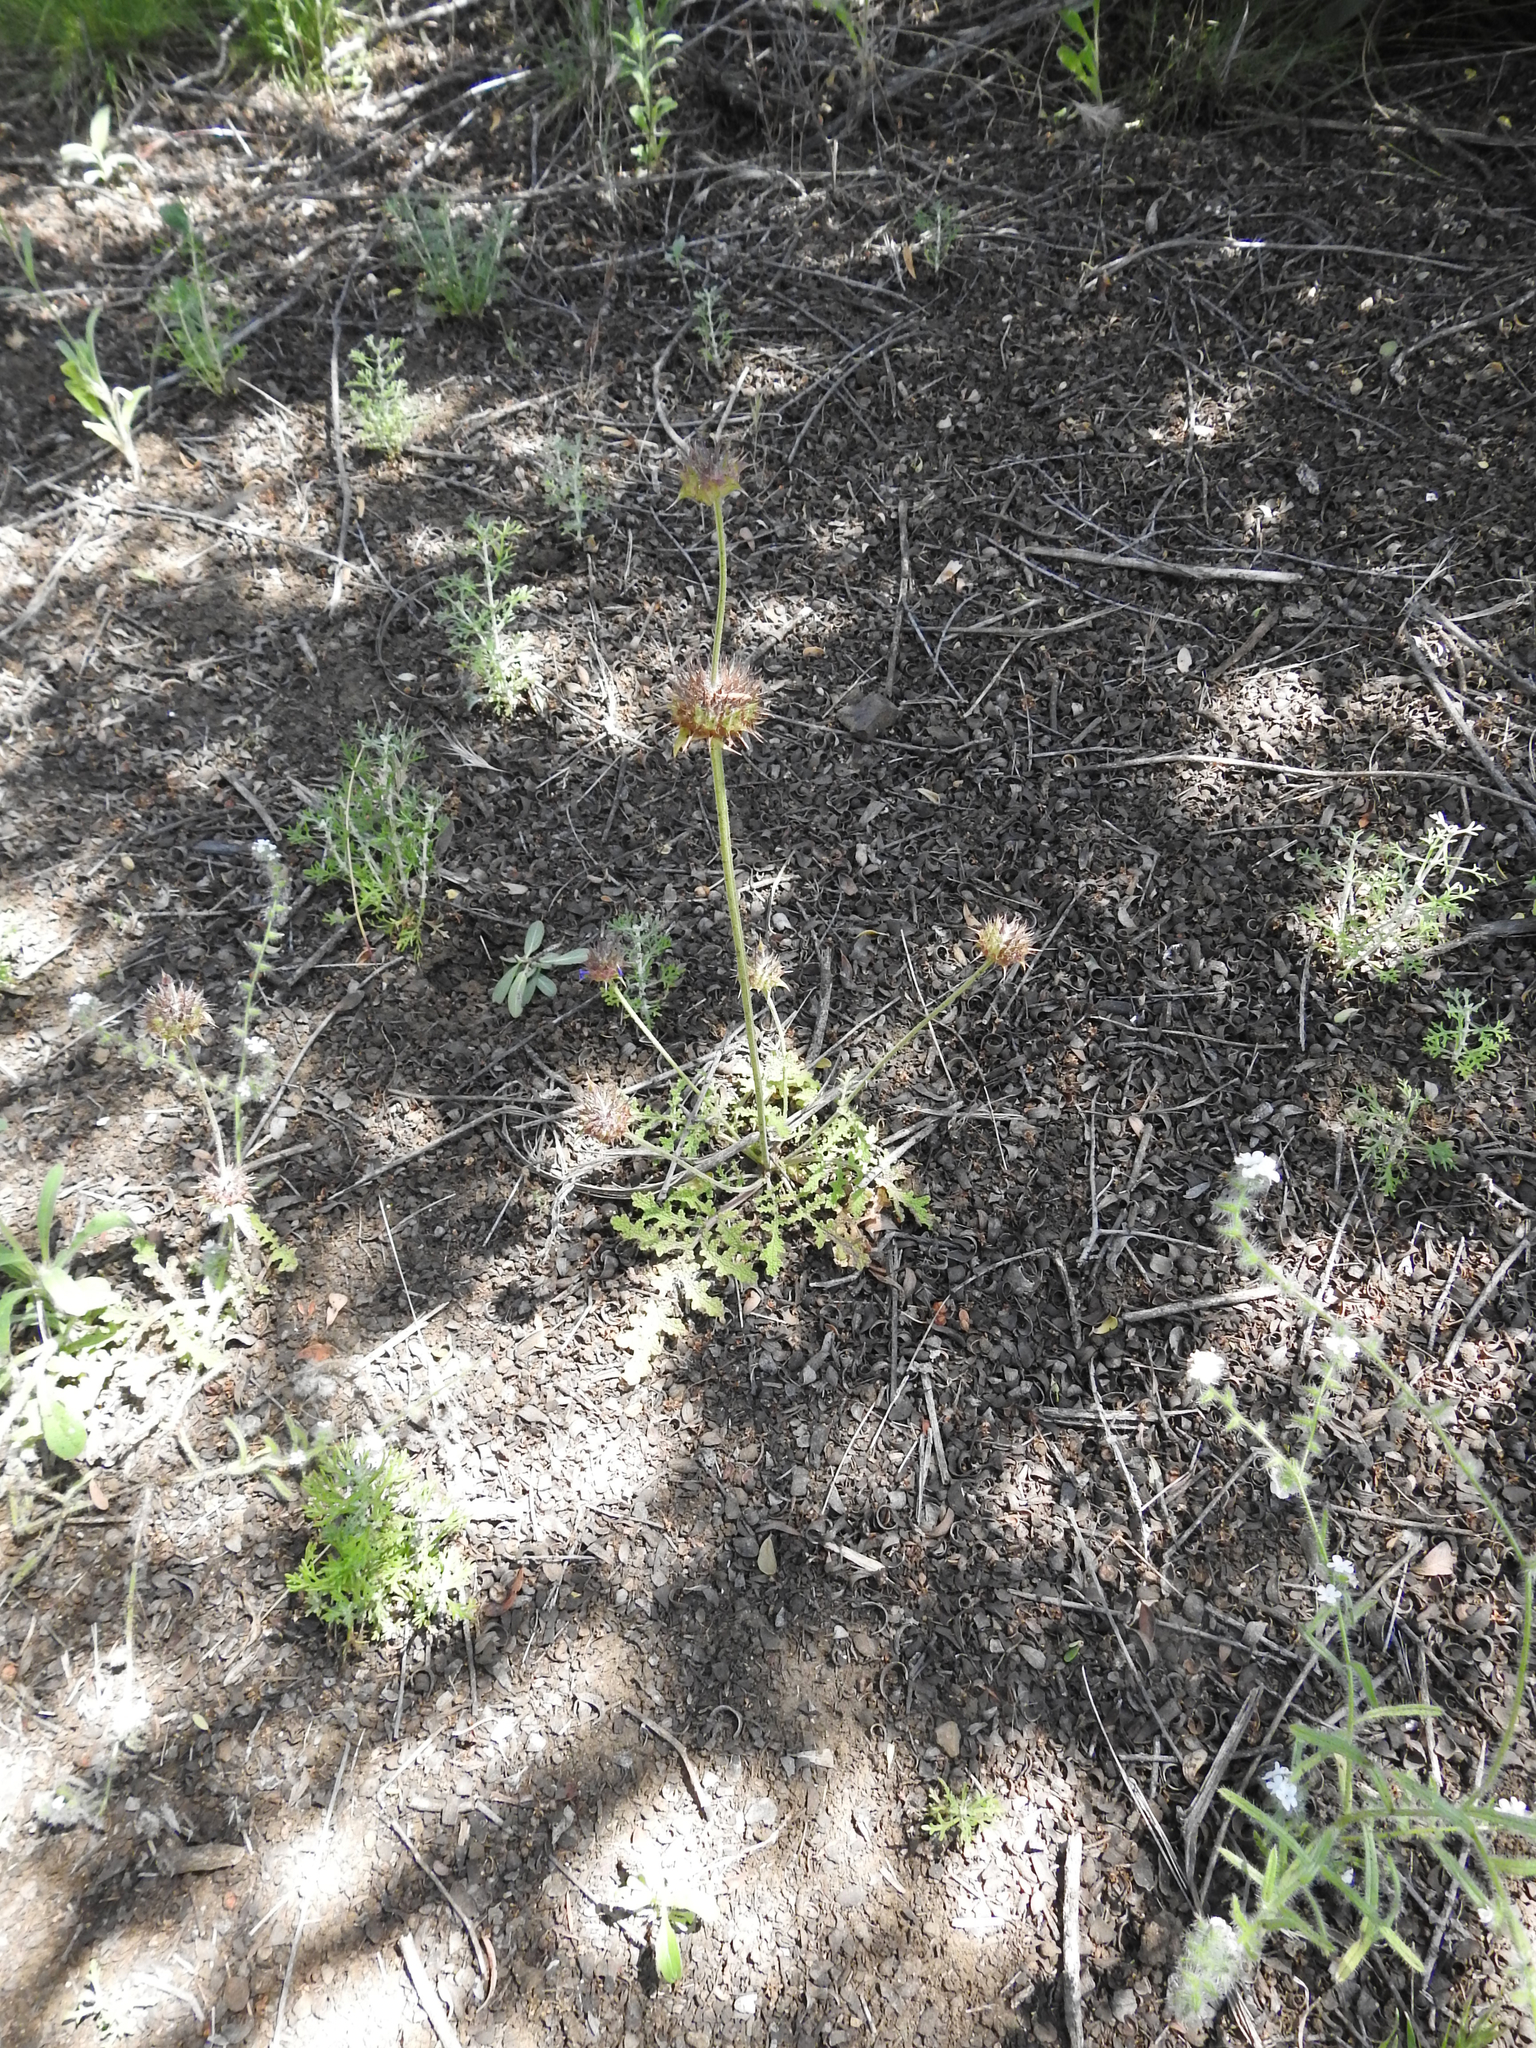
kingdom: Plantae
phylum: Tracheophyta
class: Magnoliopsida
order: Lamiales
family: Lamiaceae
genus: Salvia
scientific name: Salvia columbariae
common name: Chia
